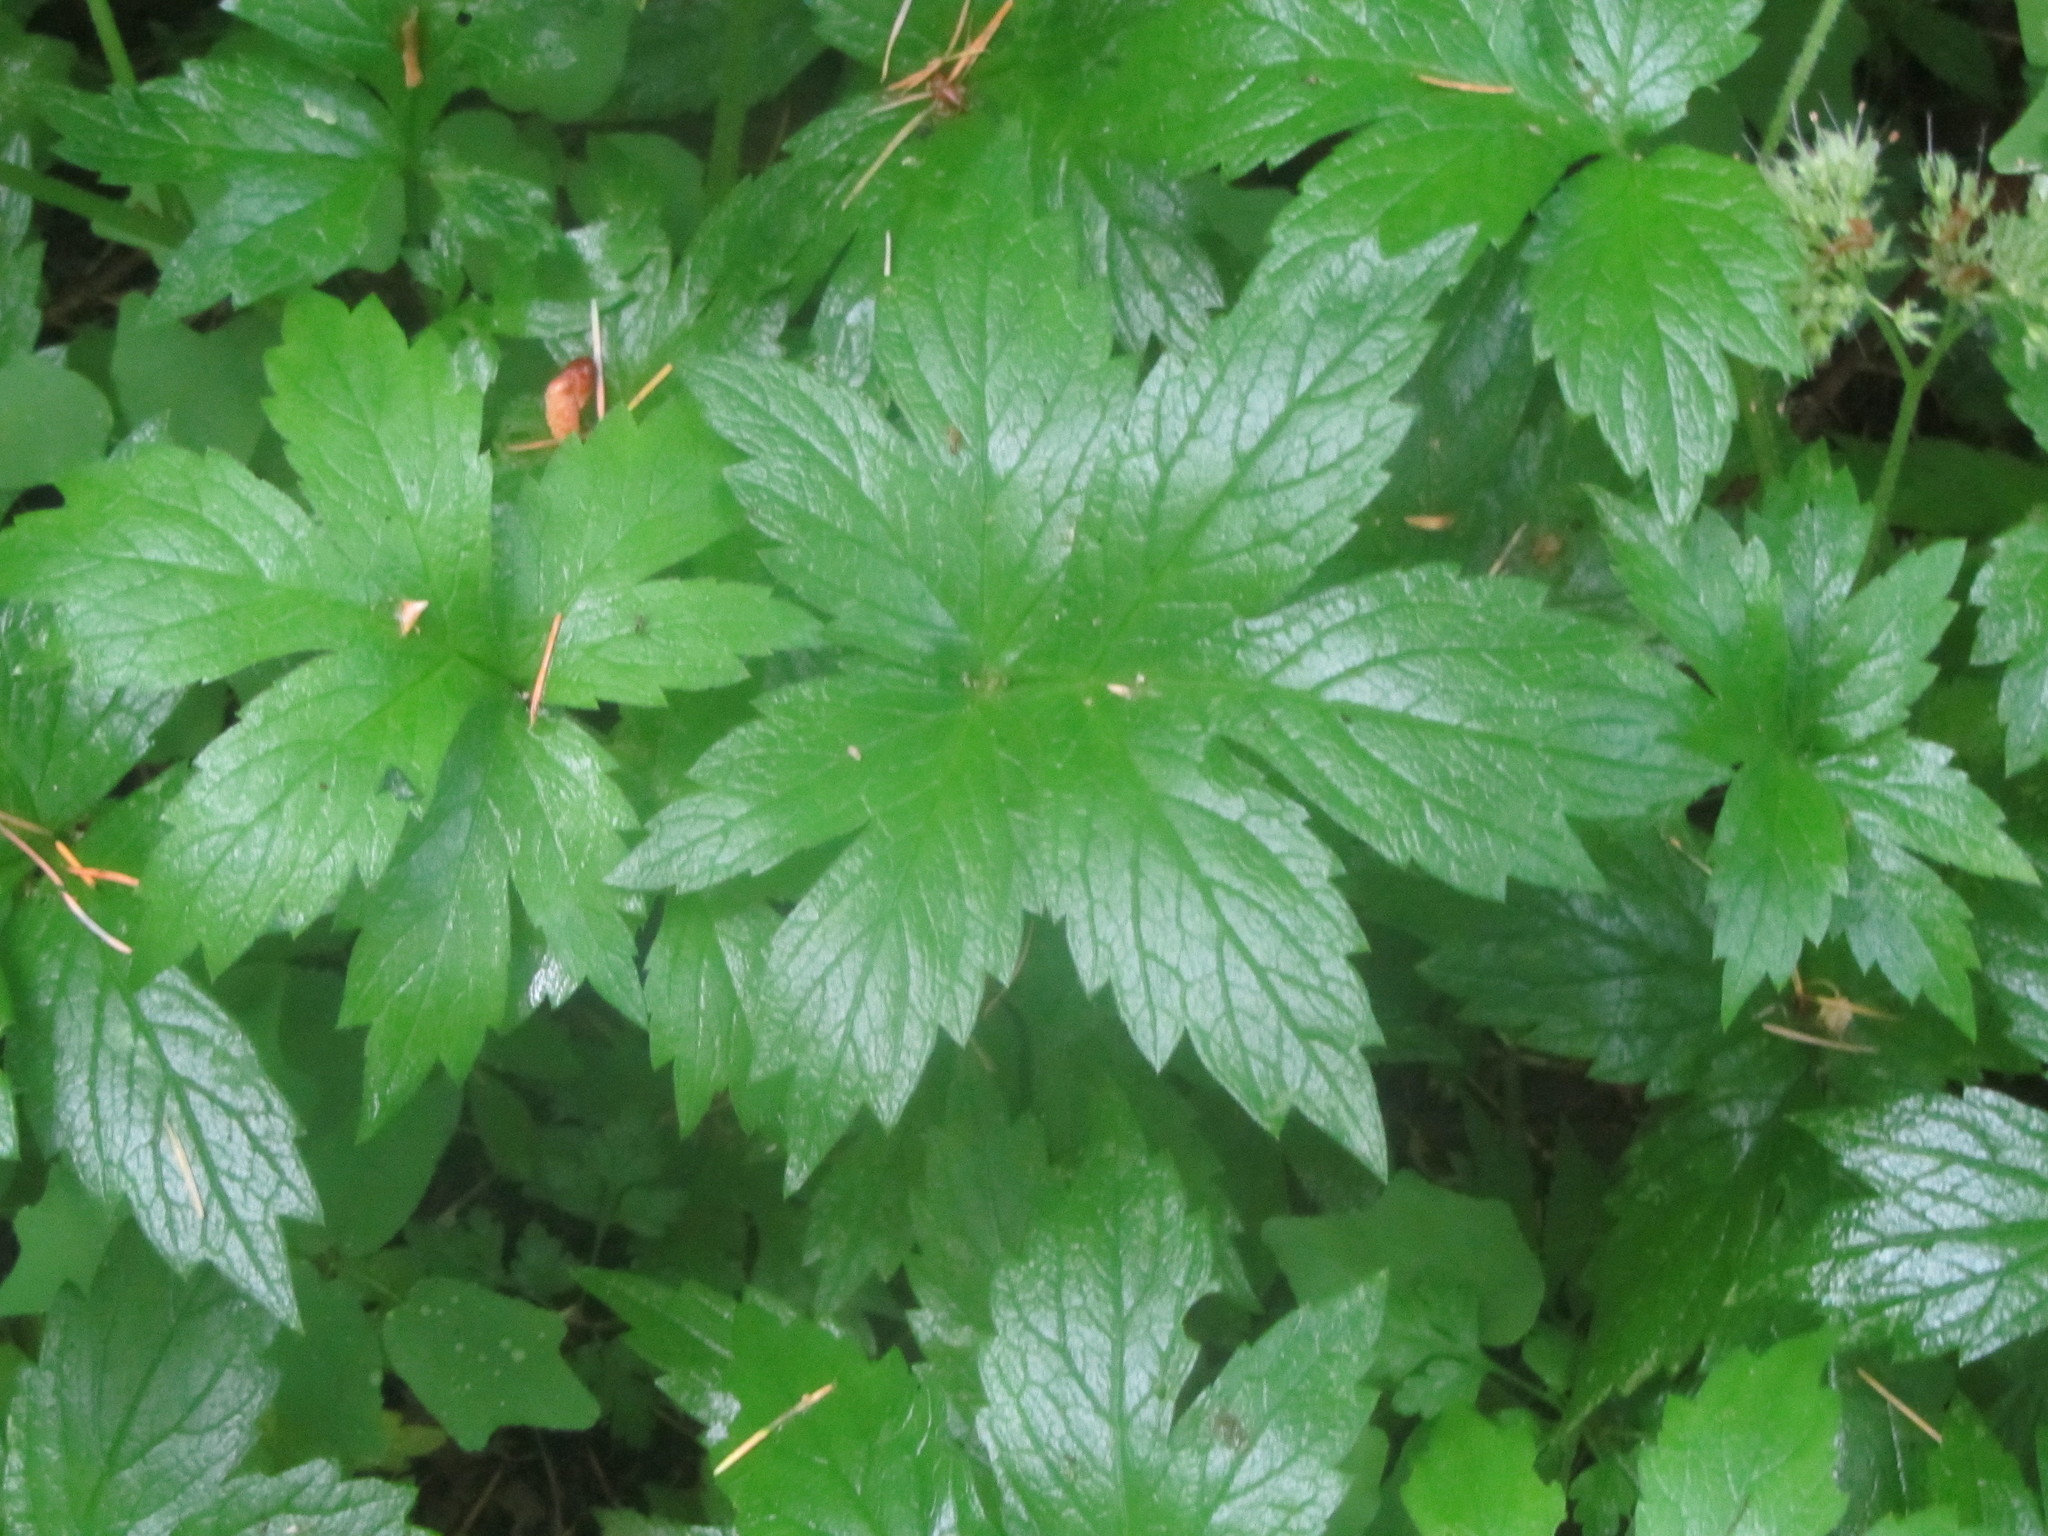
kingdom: Plantae
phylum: Tracheophyta
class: Magnoliopsida
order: Boraginales
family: Hydrophyllaceae
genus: Hydrophyllum
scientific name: Hydrophyllum tenuipes
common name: Pacific waterleaf
